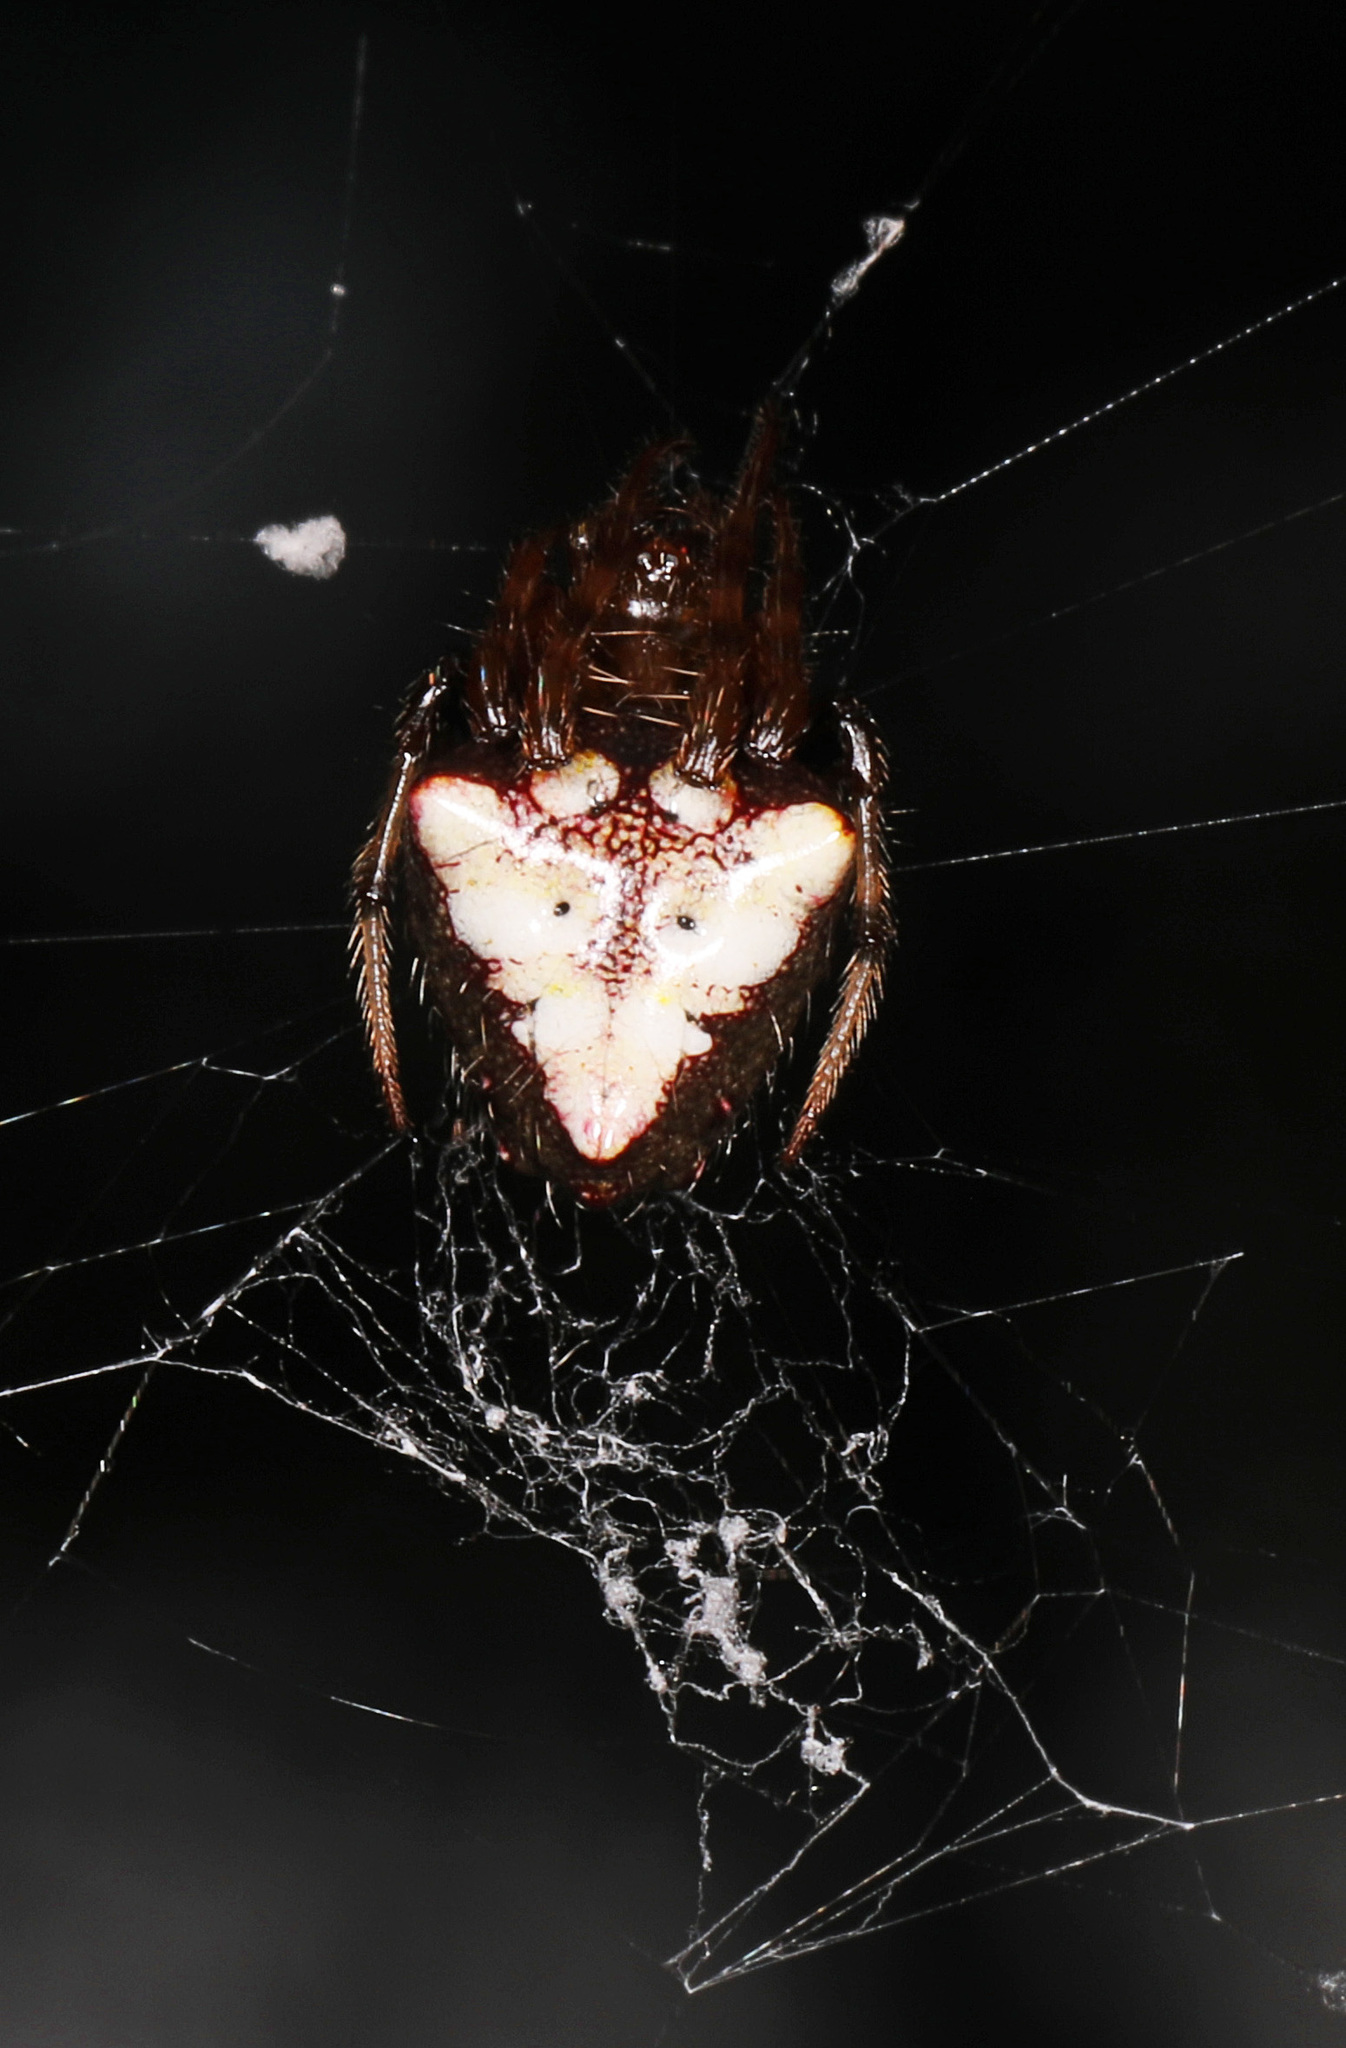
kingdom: Animalia
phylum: Arthropoda
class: Arachnida
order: Araneae
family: Araneidae
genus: Verrucosa
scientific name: Verrucosa arenata
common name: Orb weavers
